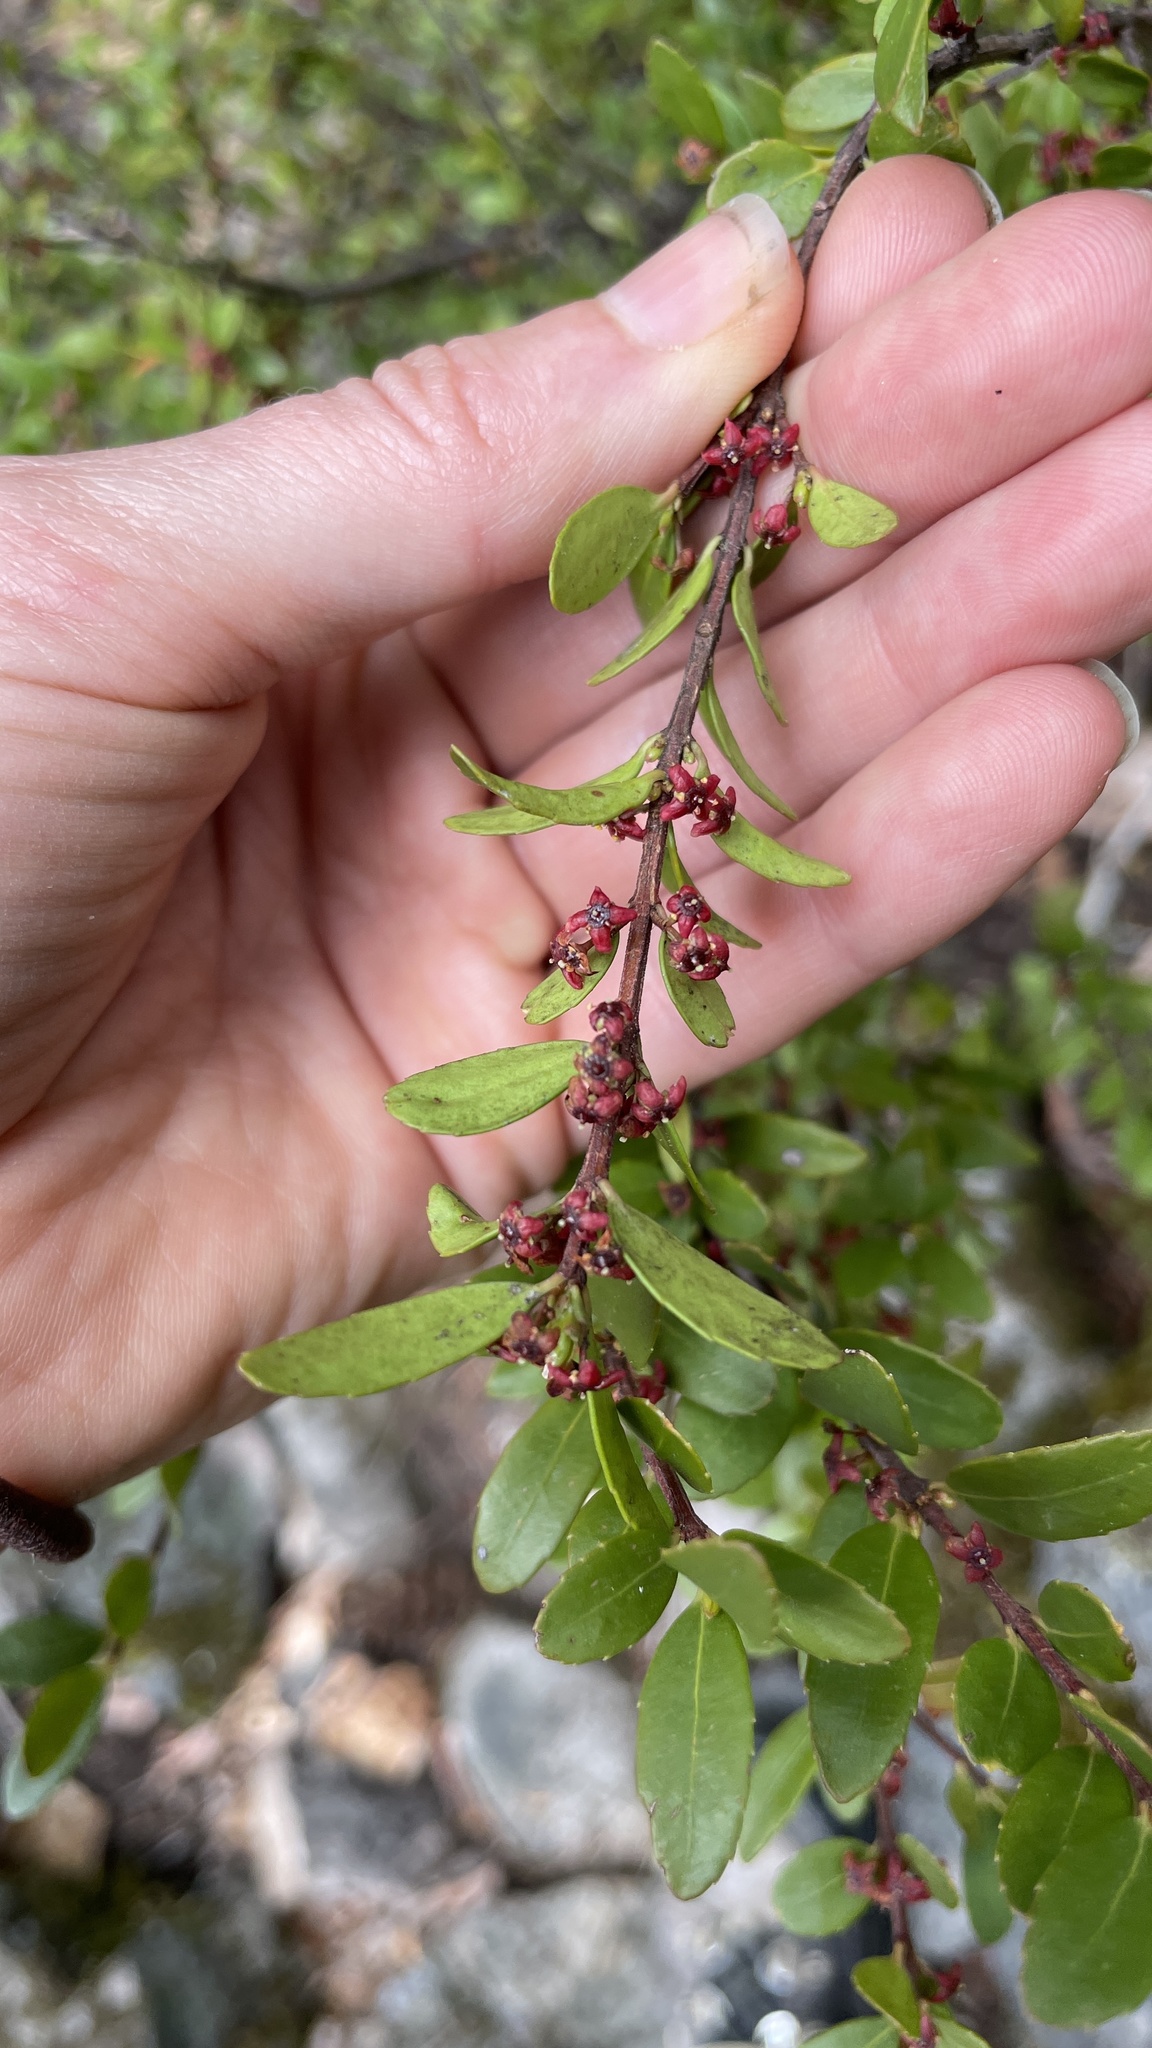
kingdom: Plantae
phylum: Tracheophyta
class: Magnoliopsida
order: Celastrales
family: Celastraceae
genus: Paxistima
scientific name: Paxistima myrsinites
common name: Mountain-lover
